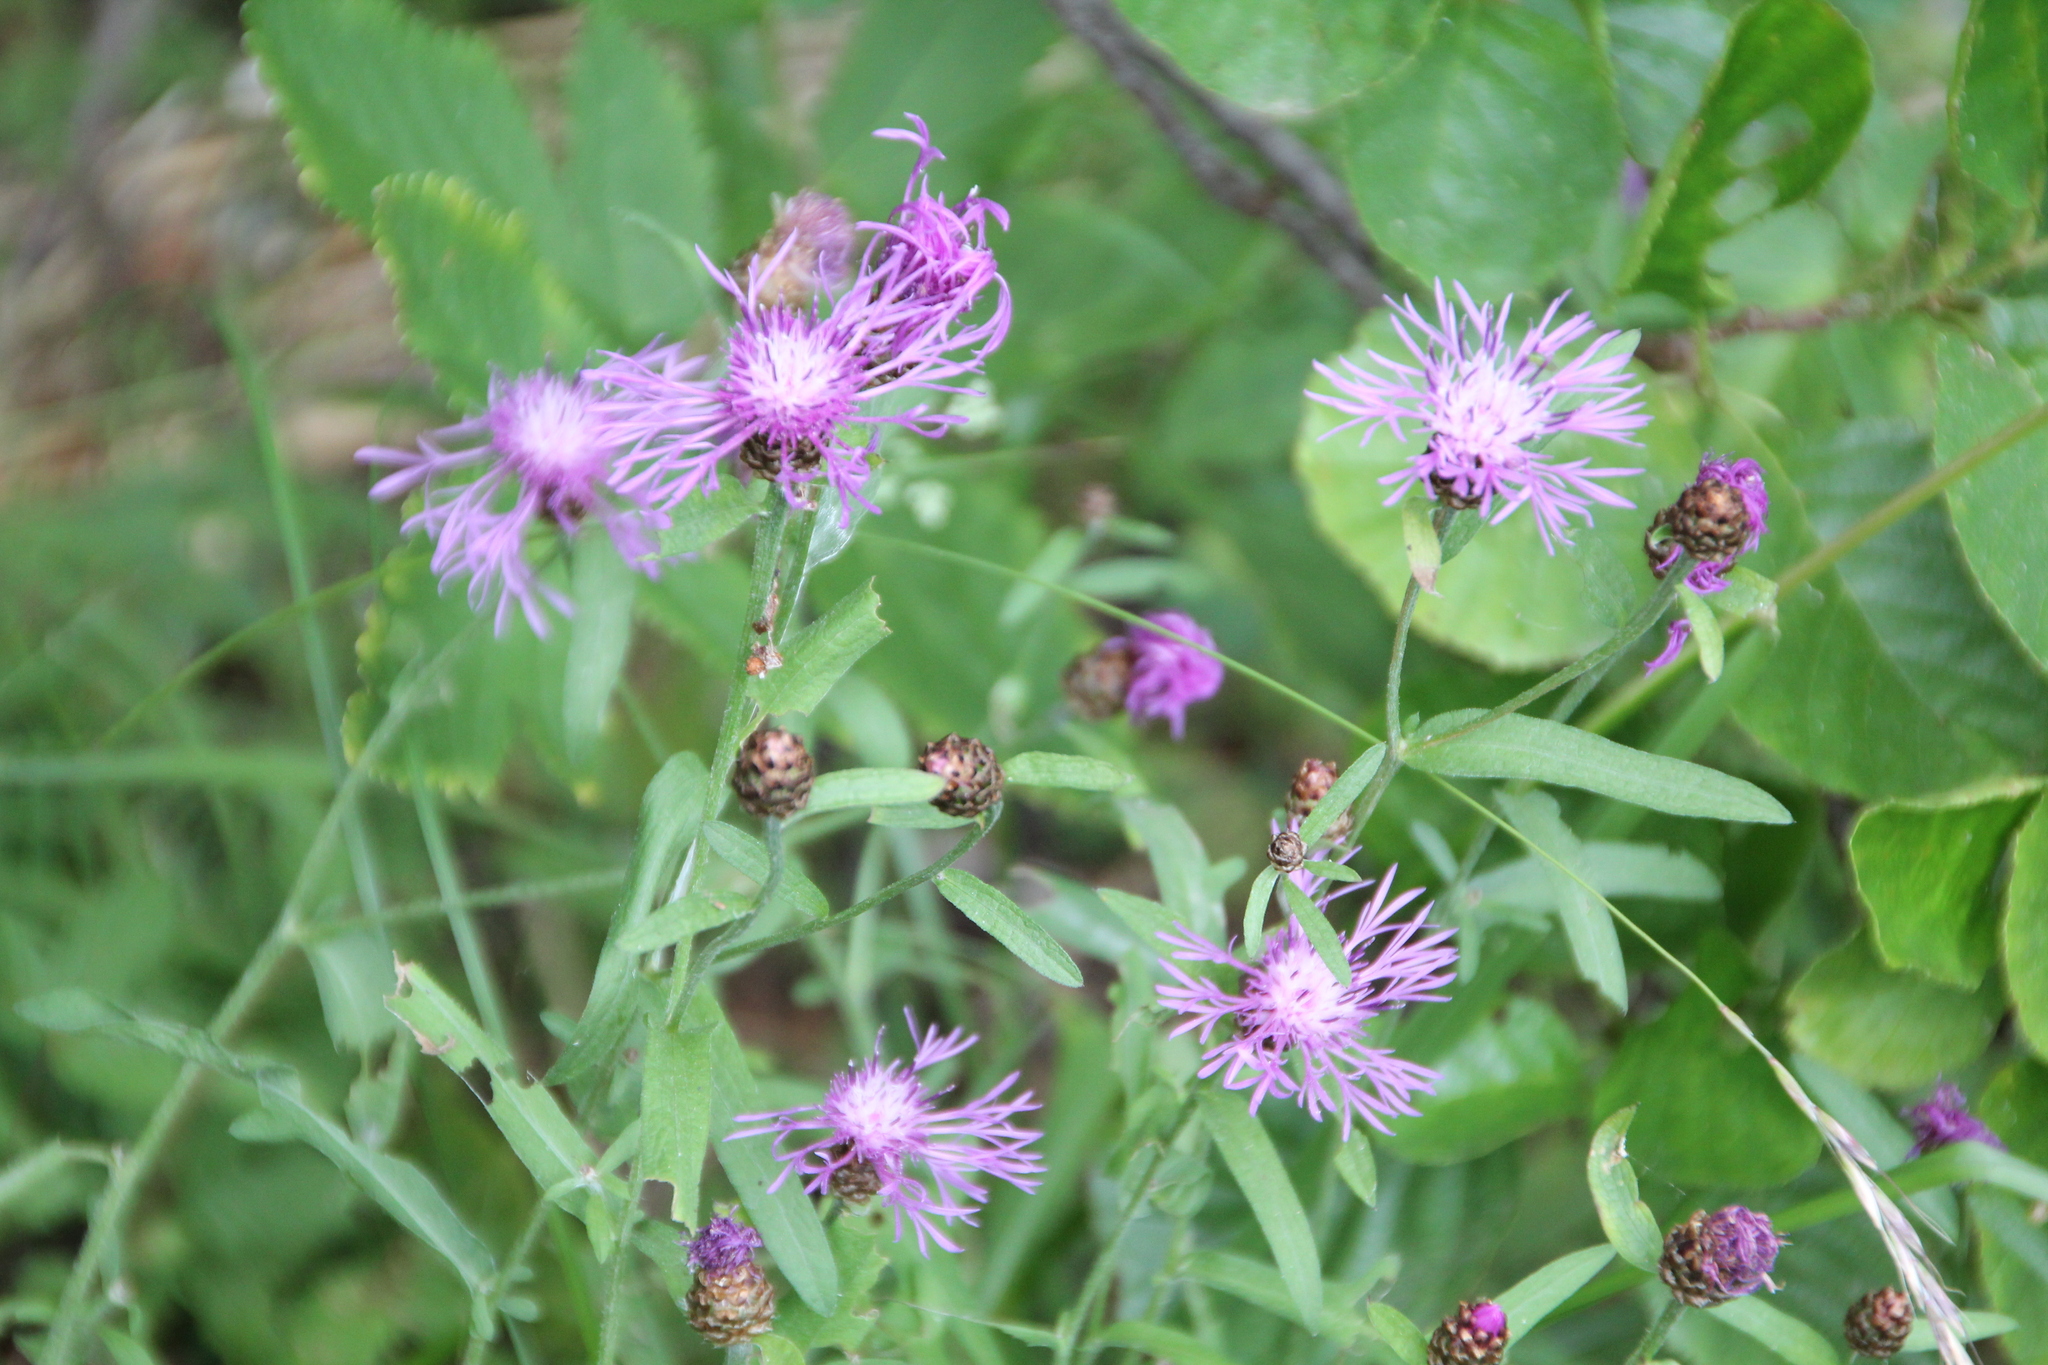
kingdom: Plantae
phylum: Tracheophyta
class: Magnoliopsida
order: Asterales
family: Asteraceae
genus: Centaurea
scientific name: Centaurea jacea
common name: Brown knapweed
